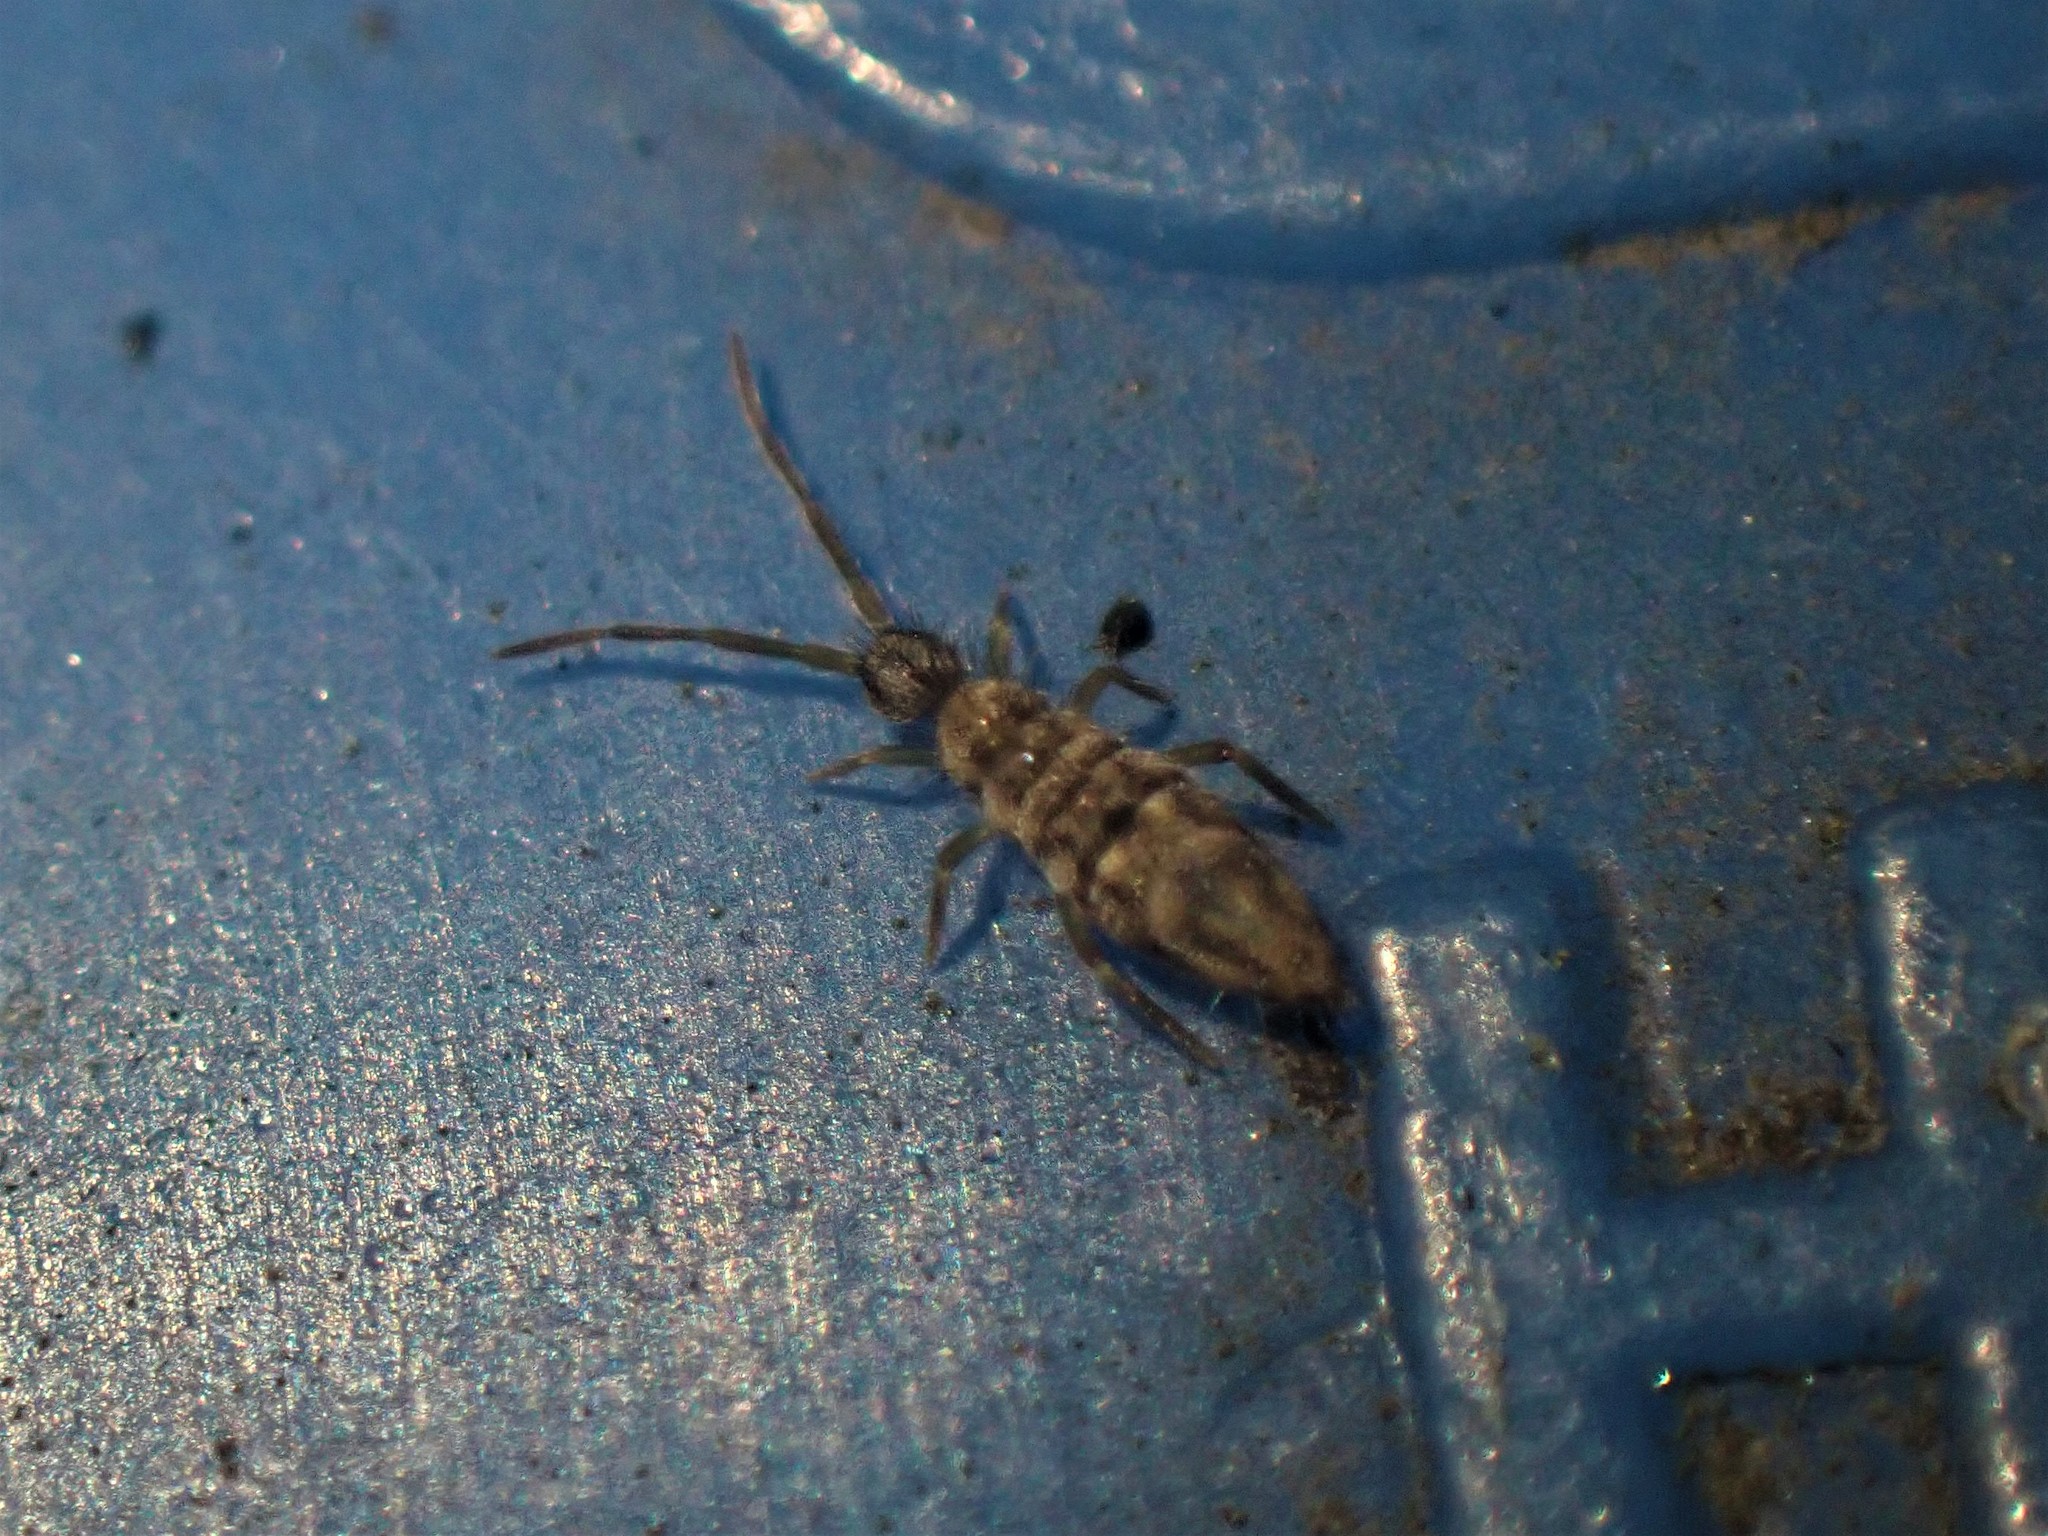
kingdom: Animalia
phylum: Arthropoda
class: Collembola
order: Entomobryomorpha
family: Entomobryidae
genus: Entomobrya
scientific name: Entomobrya katzi
